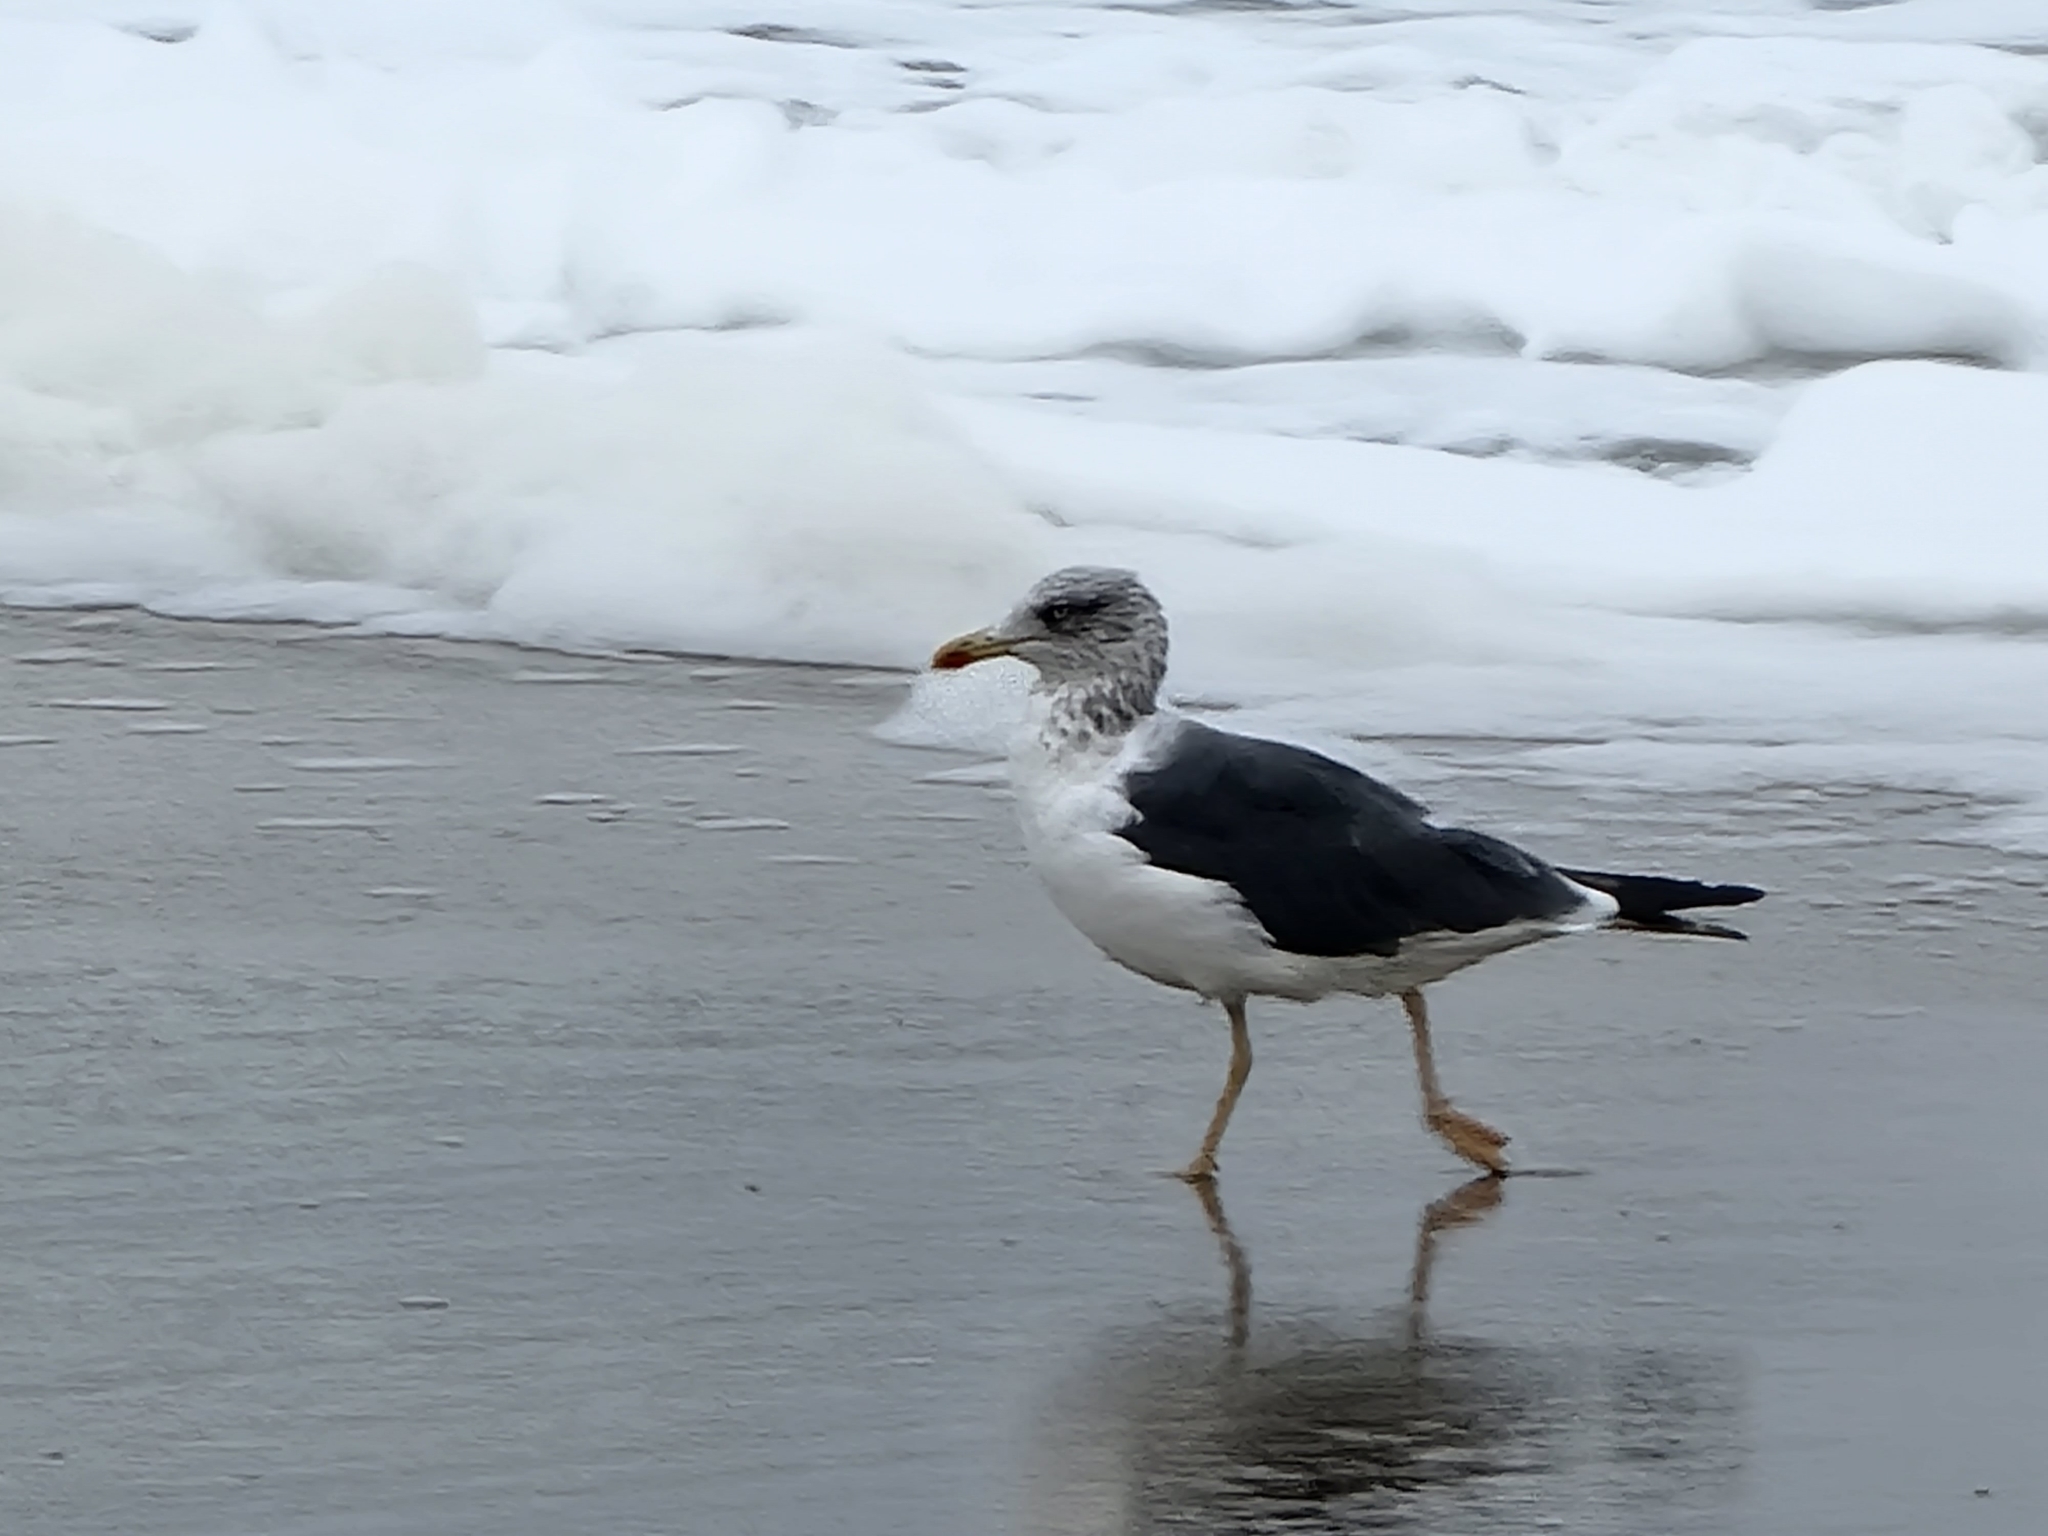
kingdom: Animalia
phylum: Chordata
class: Aves
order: Charadriiformes
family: Laridae
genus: Larus
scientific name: Larus fuscus
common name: Lesser black-backed gull
